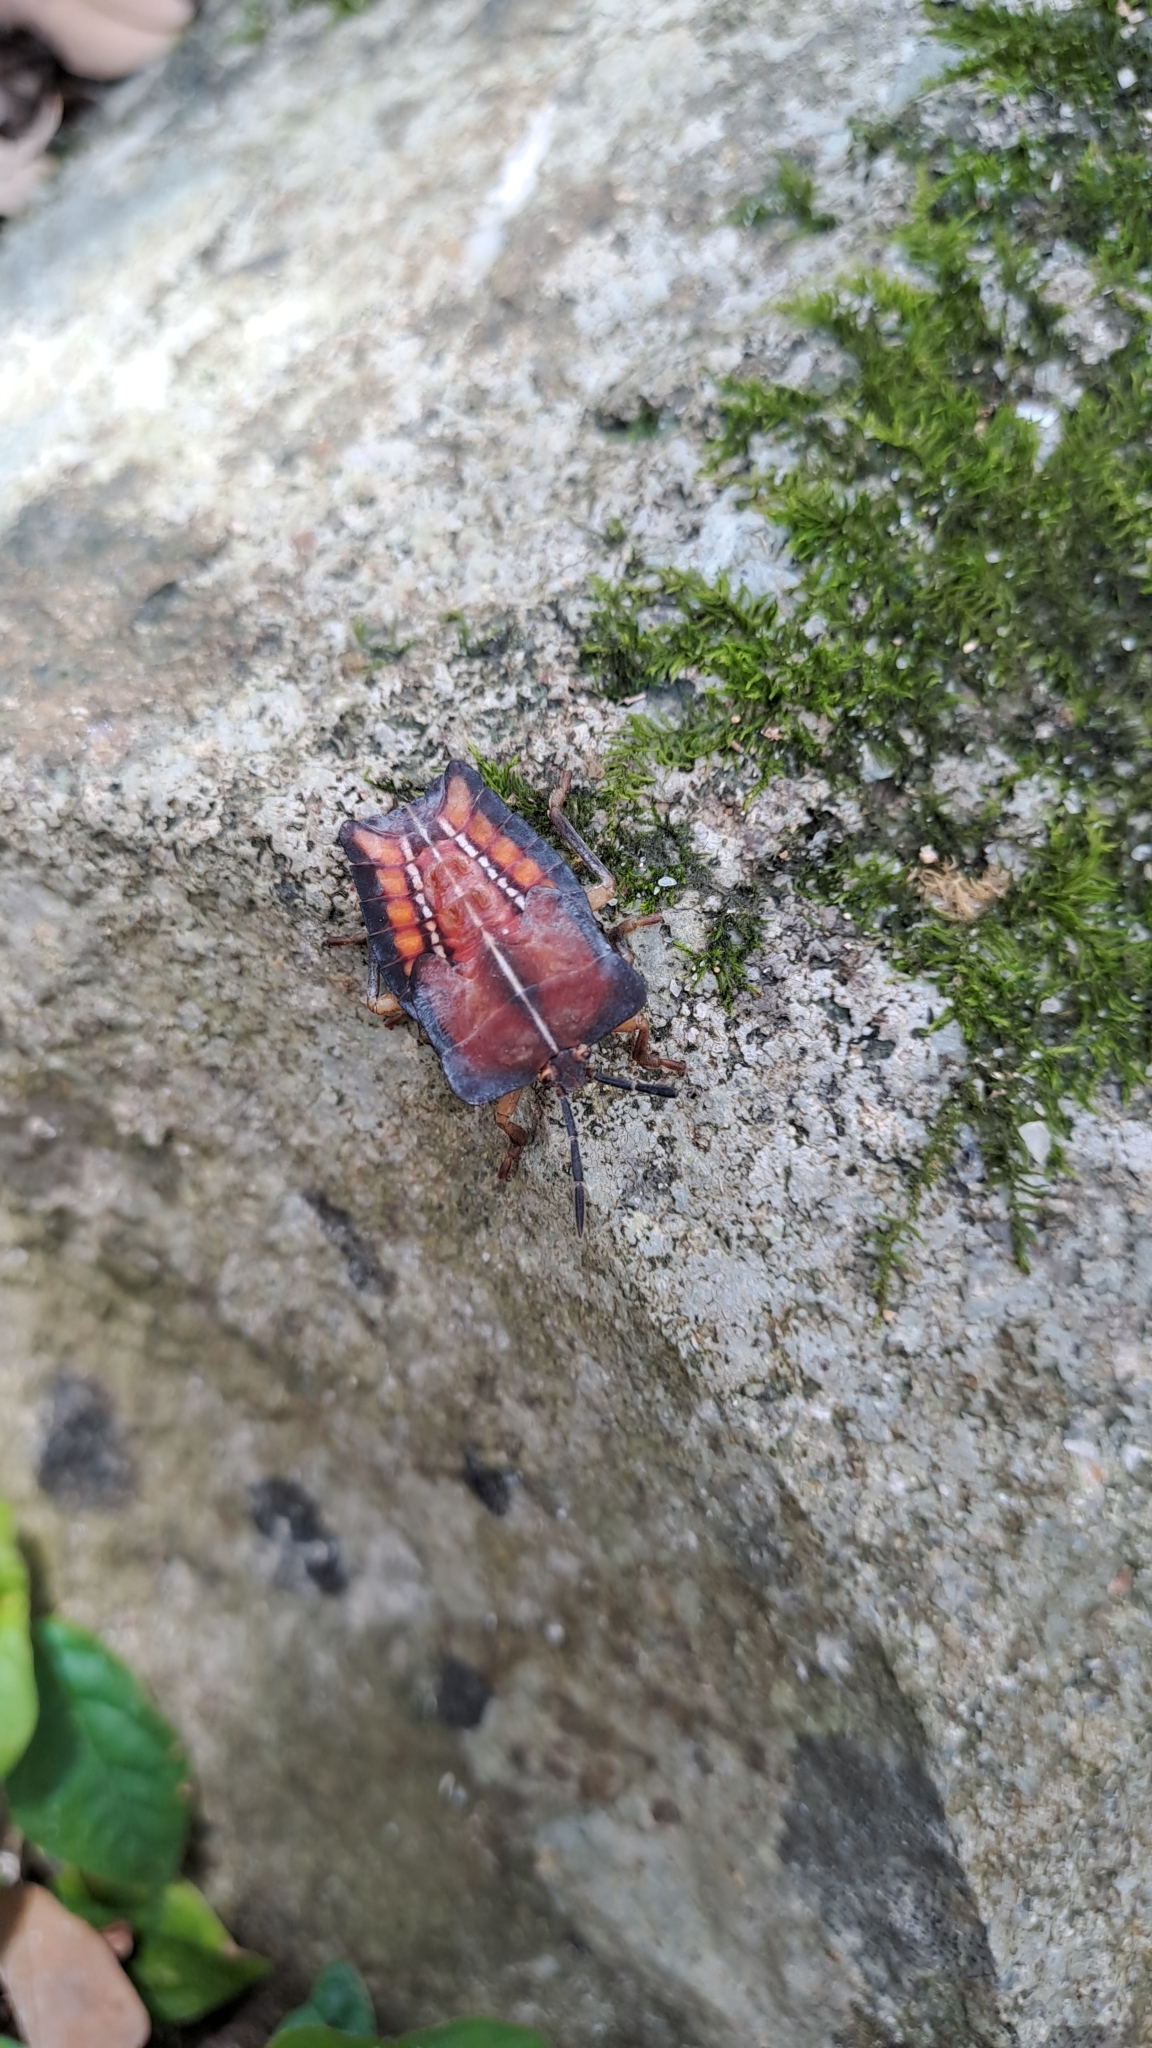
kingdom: Animalia
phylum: Arthropoda
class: Insecta
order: Hemiptera
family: Tessaratomidae
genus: Tessaratoma
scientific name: Tessaratoma papillosa
